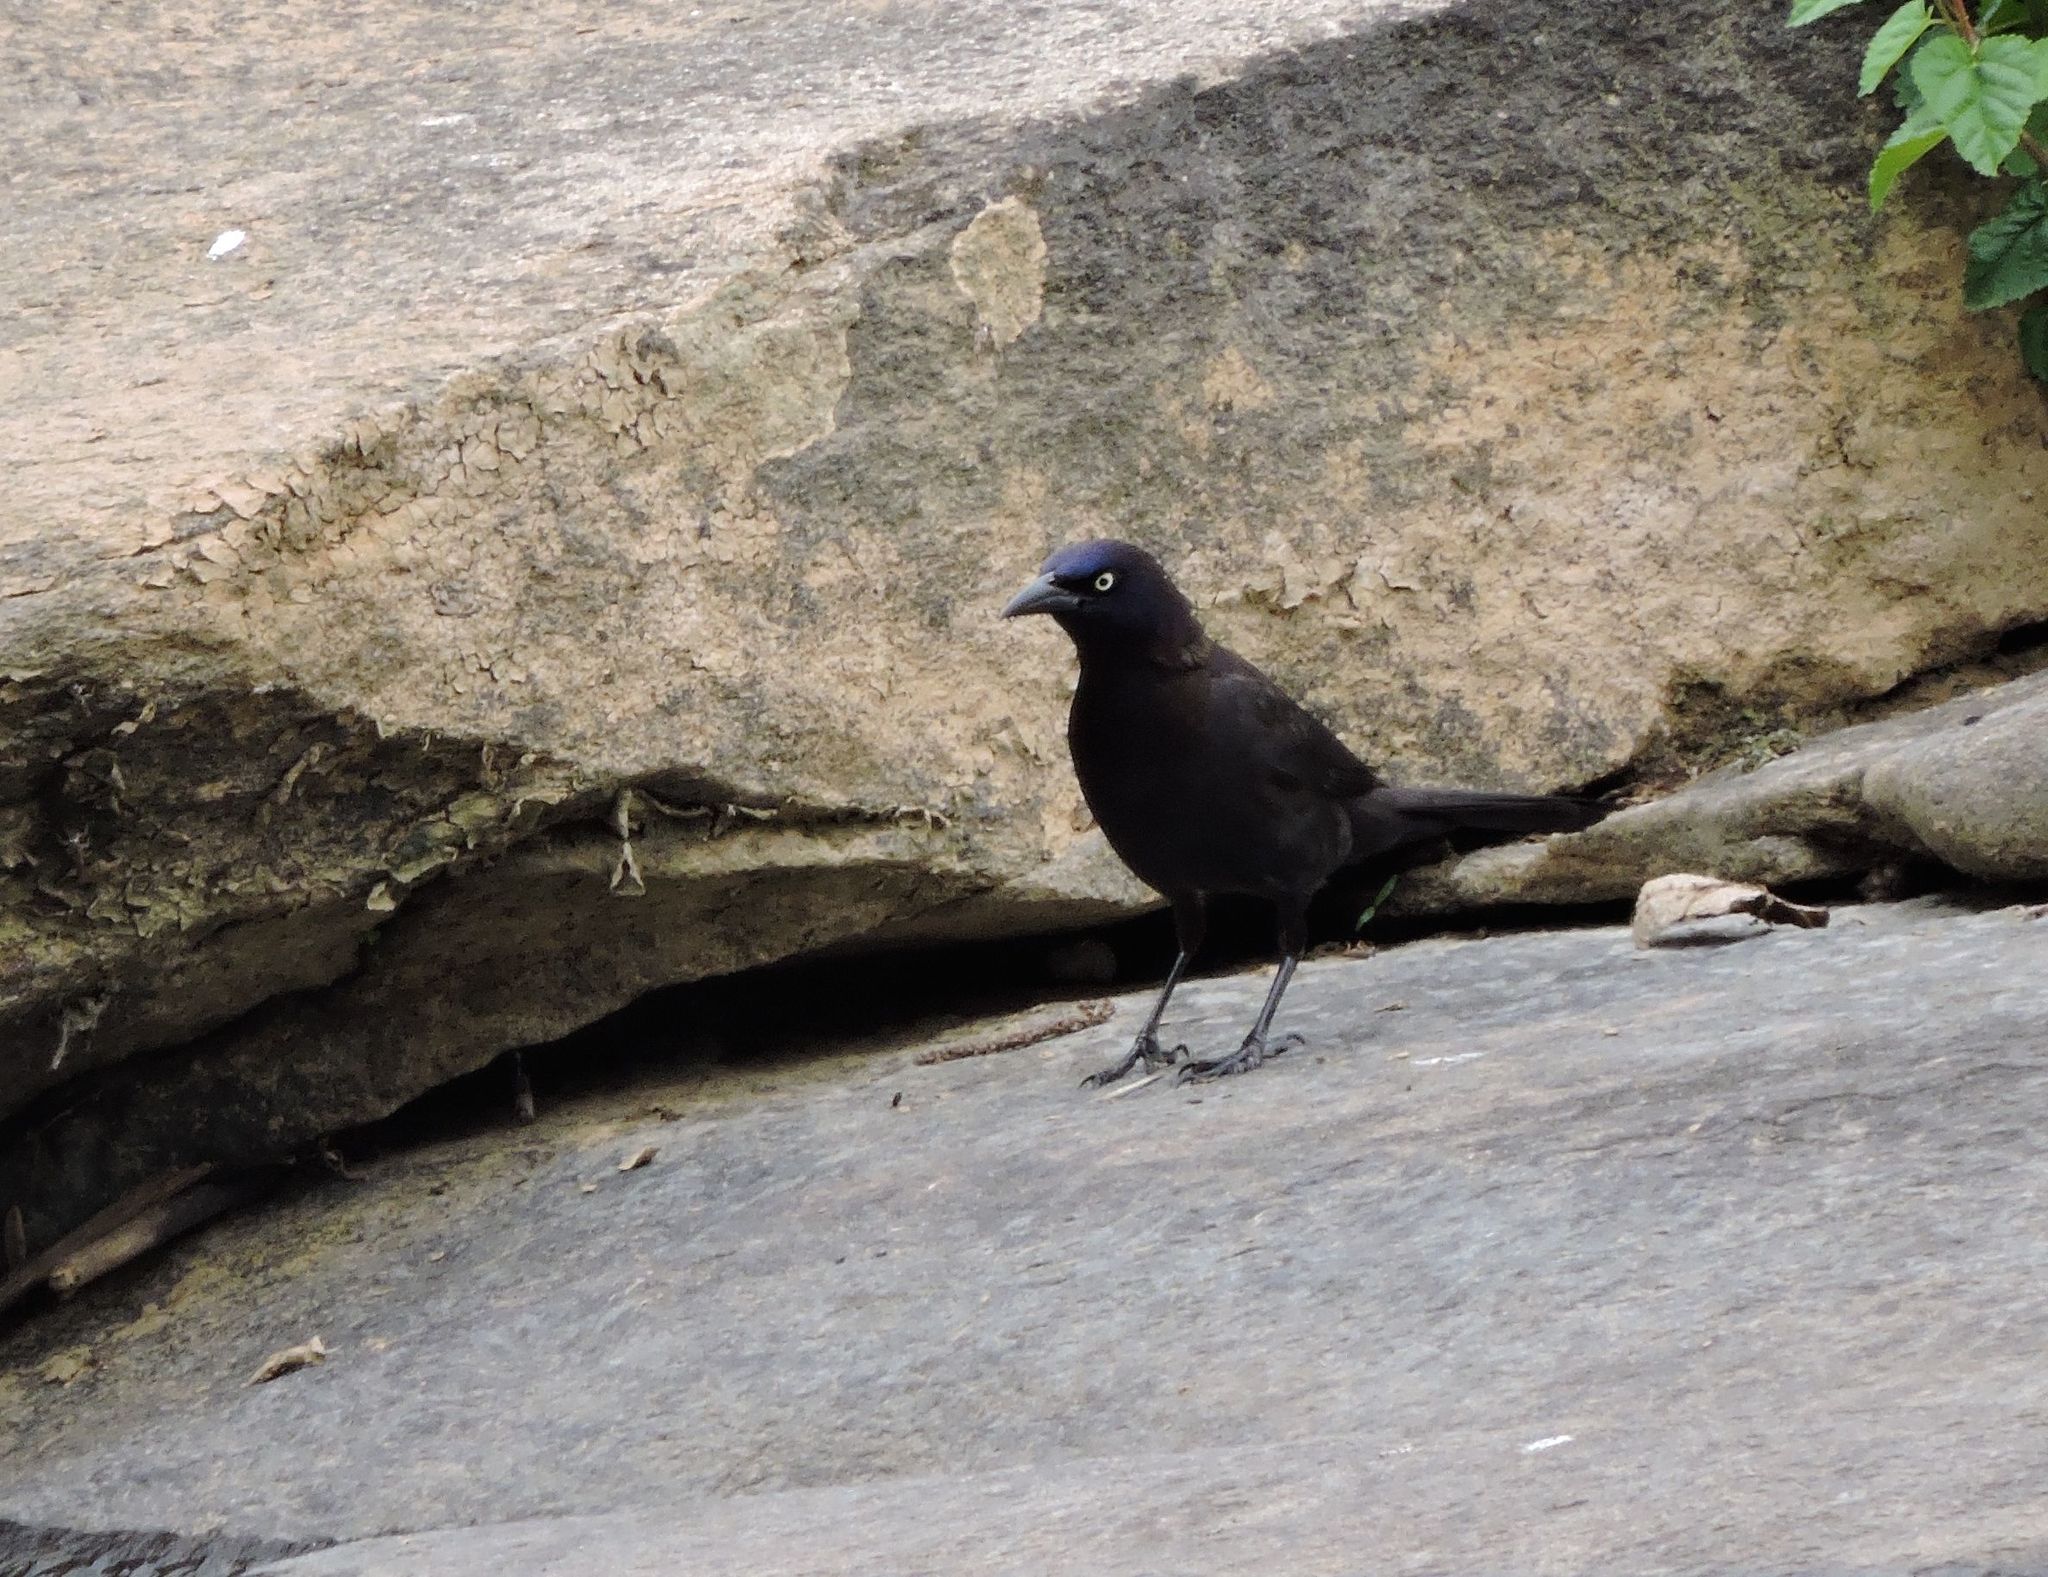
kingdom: Animalia
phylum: Chordata
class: Aves
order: Passeriformes
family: Icteridae
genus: Quiscalus
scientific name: Quiscalus quiscula
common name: Common grackle
